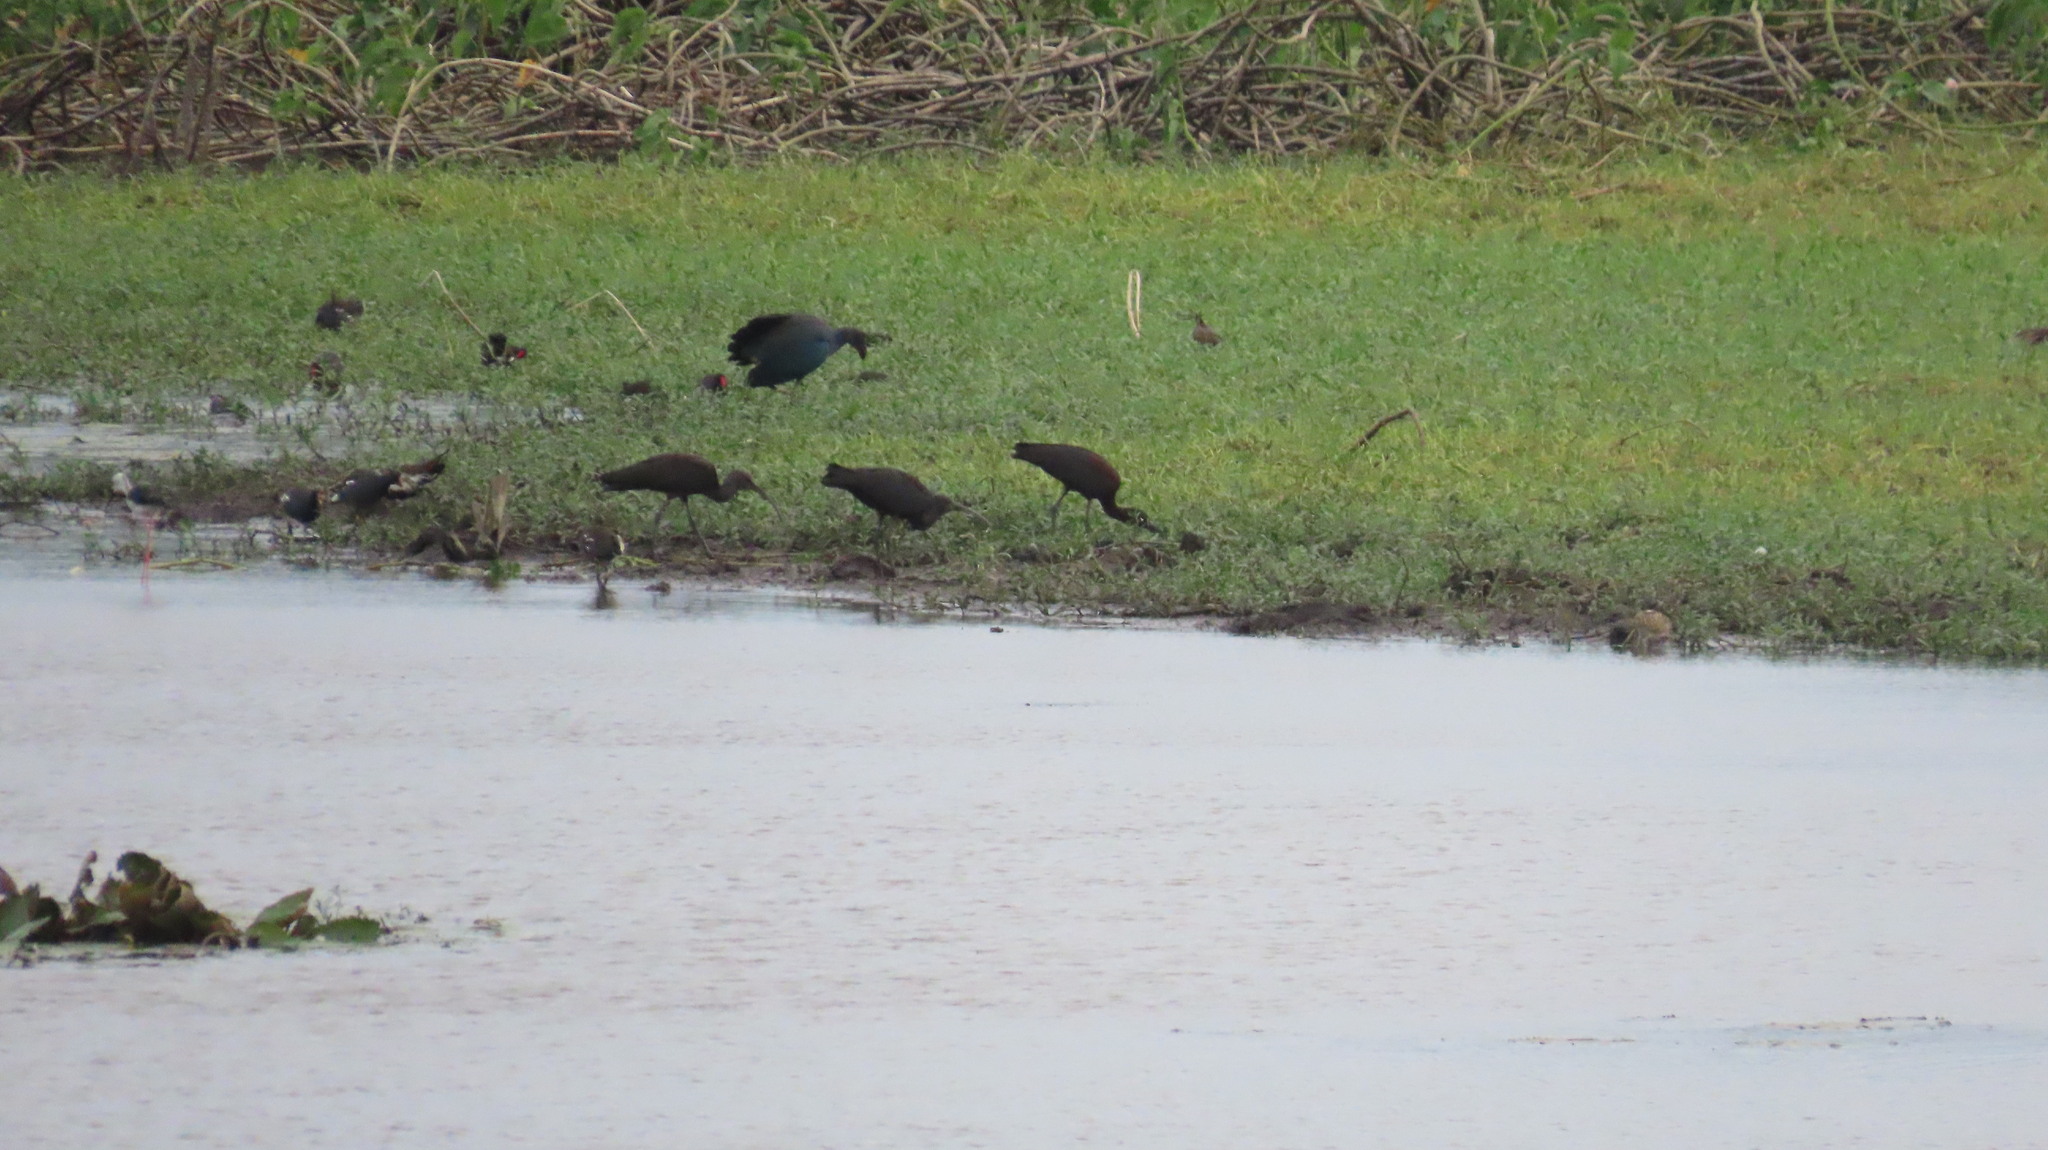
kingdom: Animalia
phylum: Chordata
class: Aves
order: Gruiformes
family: Rallidae
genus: Porphyrio
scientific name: Porphyrio porphyrio
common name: Purple swamphen
